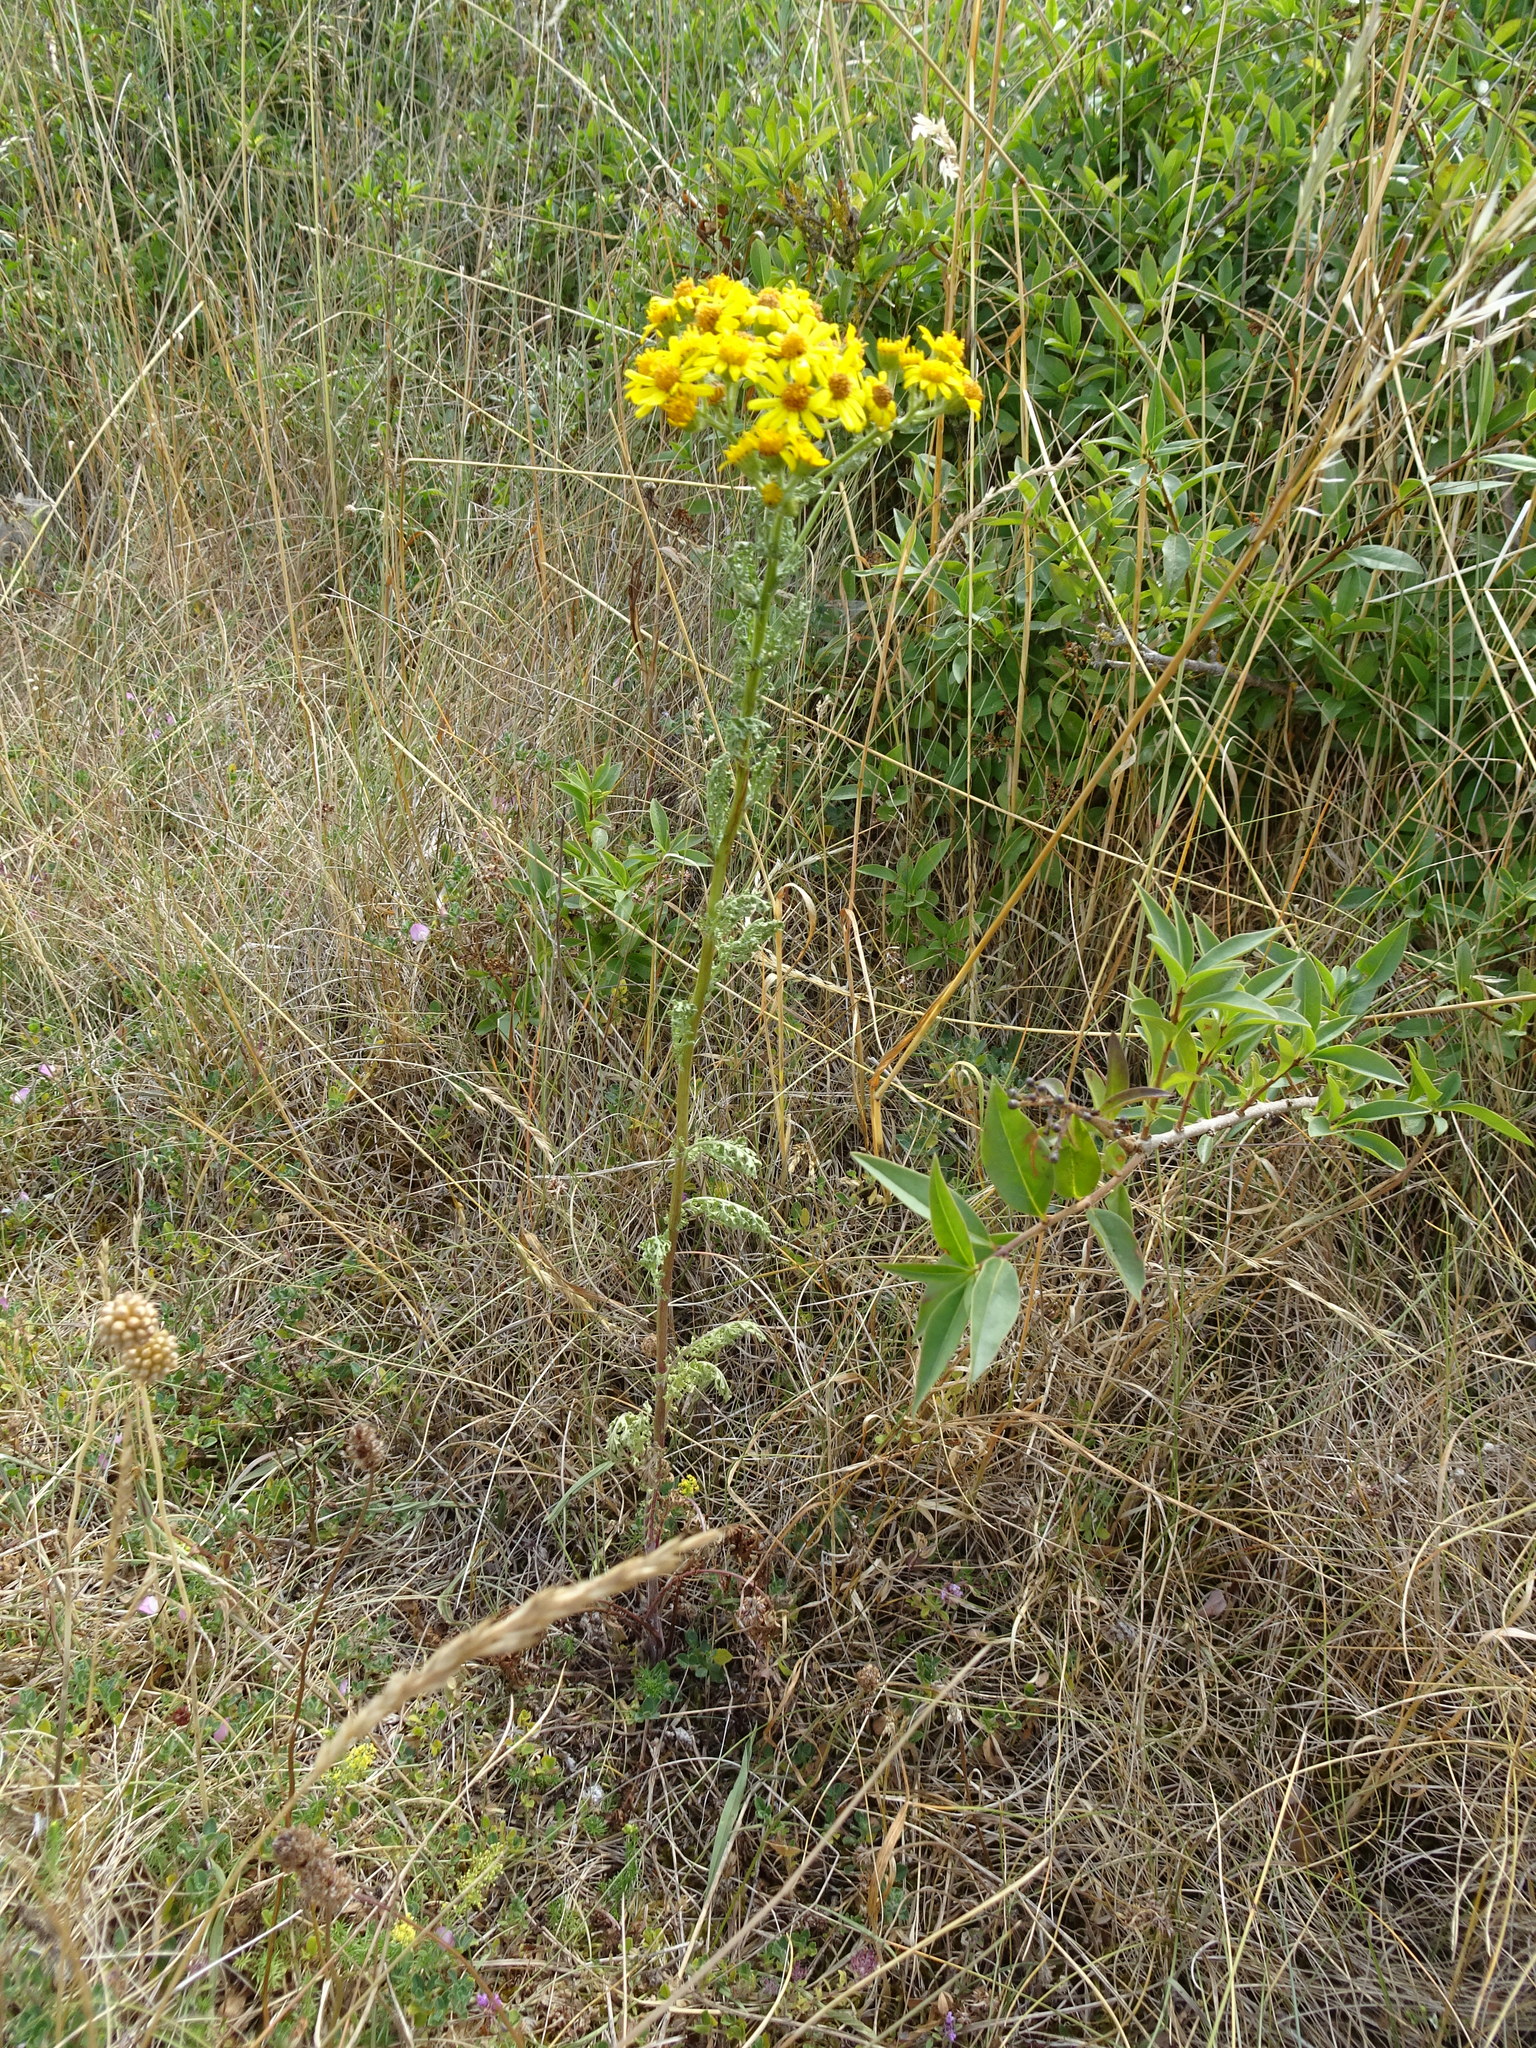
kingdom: Plantae
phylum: Tracheophyta
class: Magnoliopsida
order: Asterales
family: Asteraceae
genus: Jacobaea
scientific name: Jacobaea vulgaris
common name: Stinking willie
